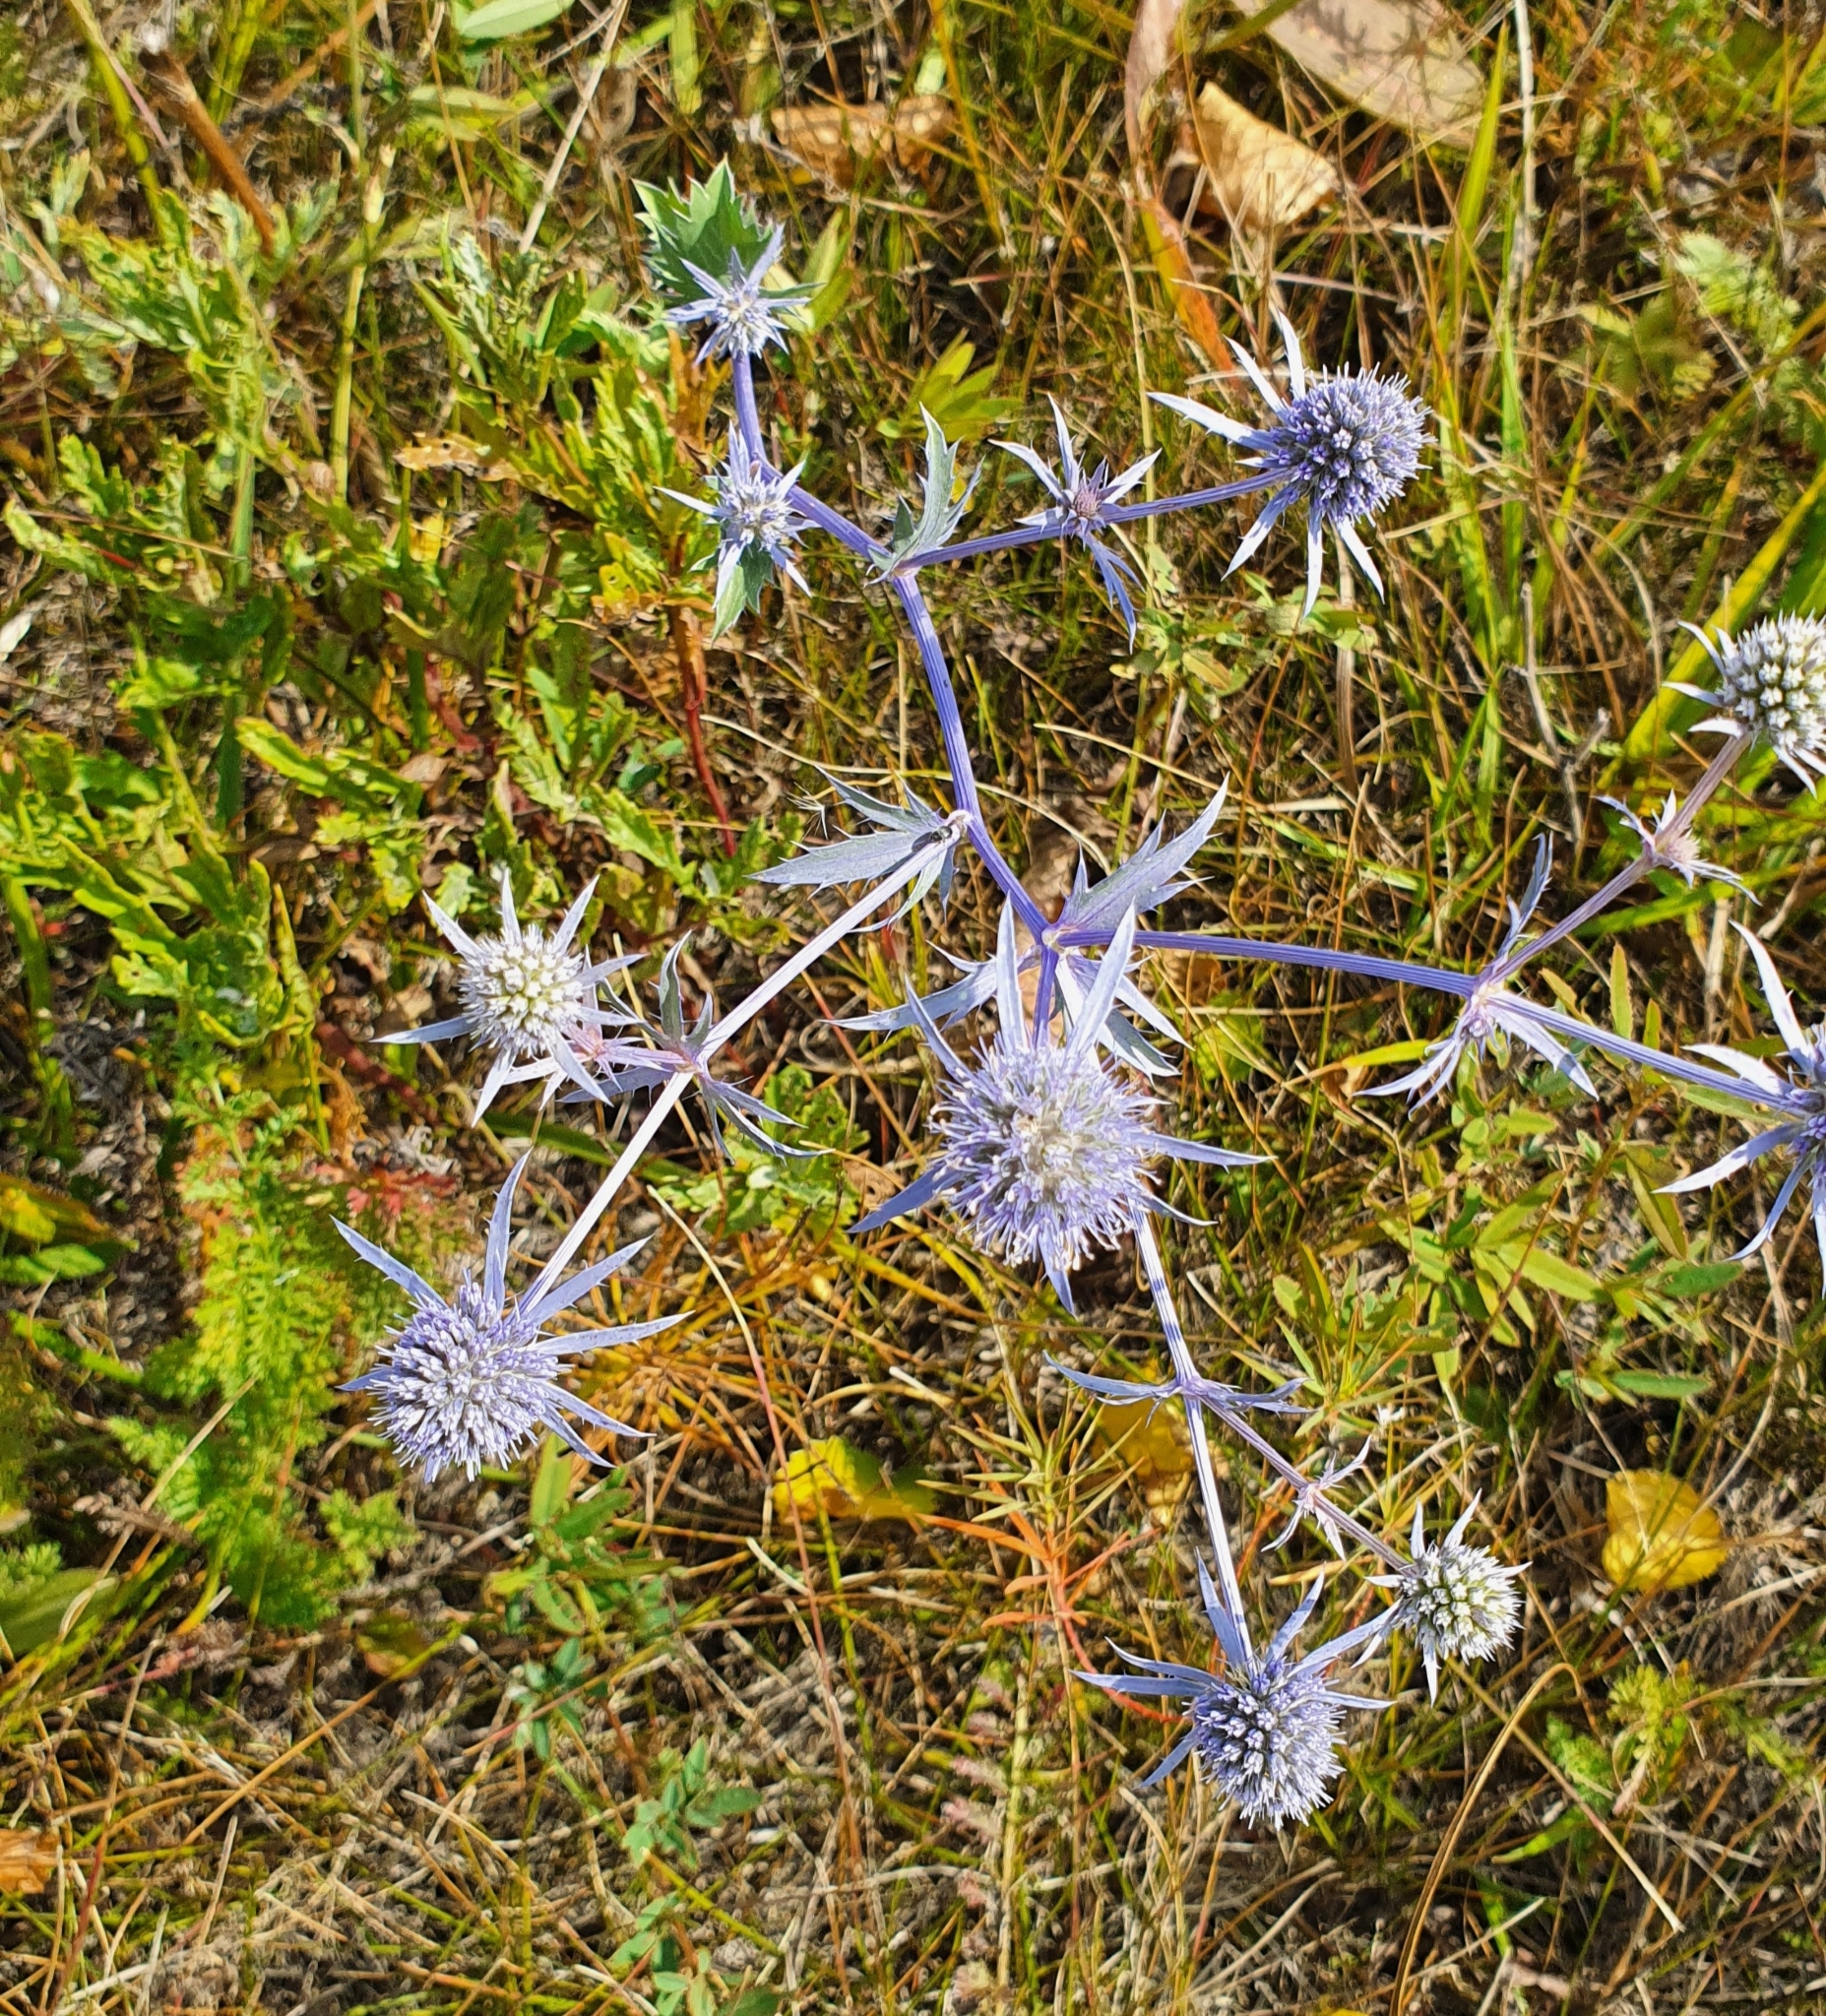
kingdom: Plantae
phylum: Tracheophyta
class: Magnoliopsida
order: Apiales
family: Apiaceae
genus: Eryngium
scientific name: Eryngium planum
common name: Blue eryngo
